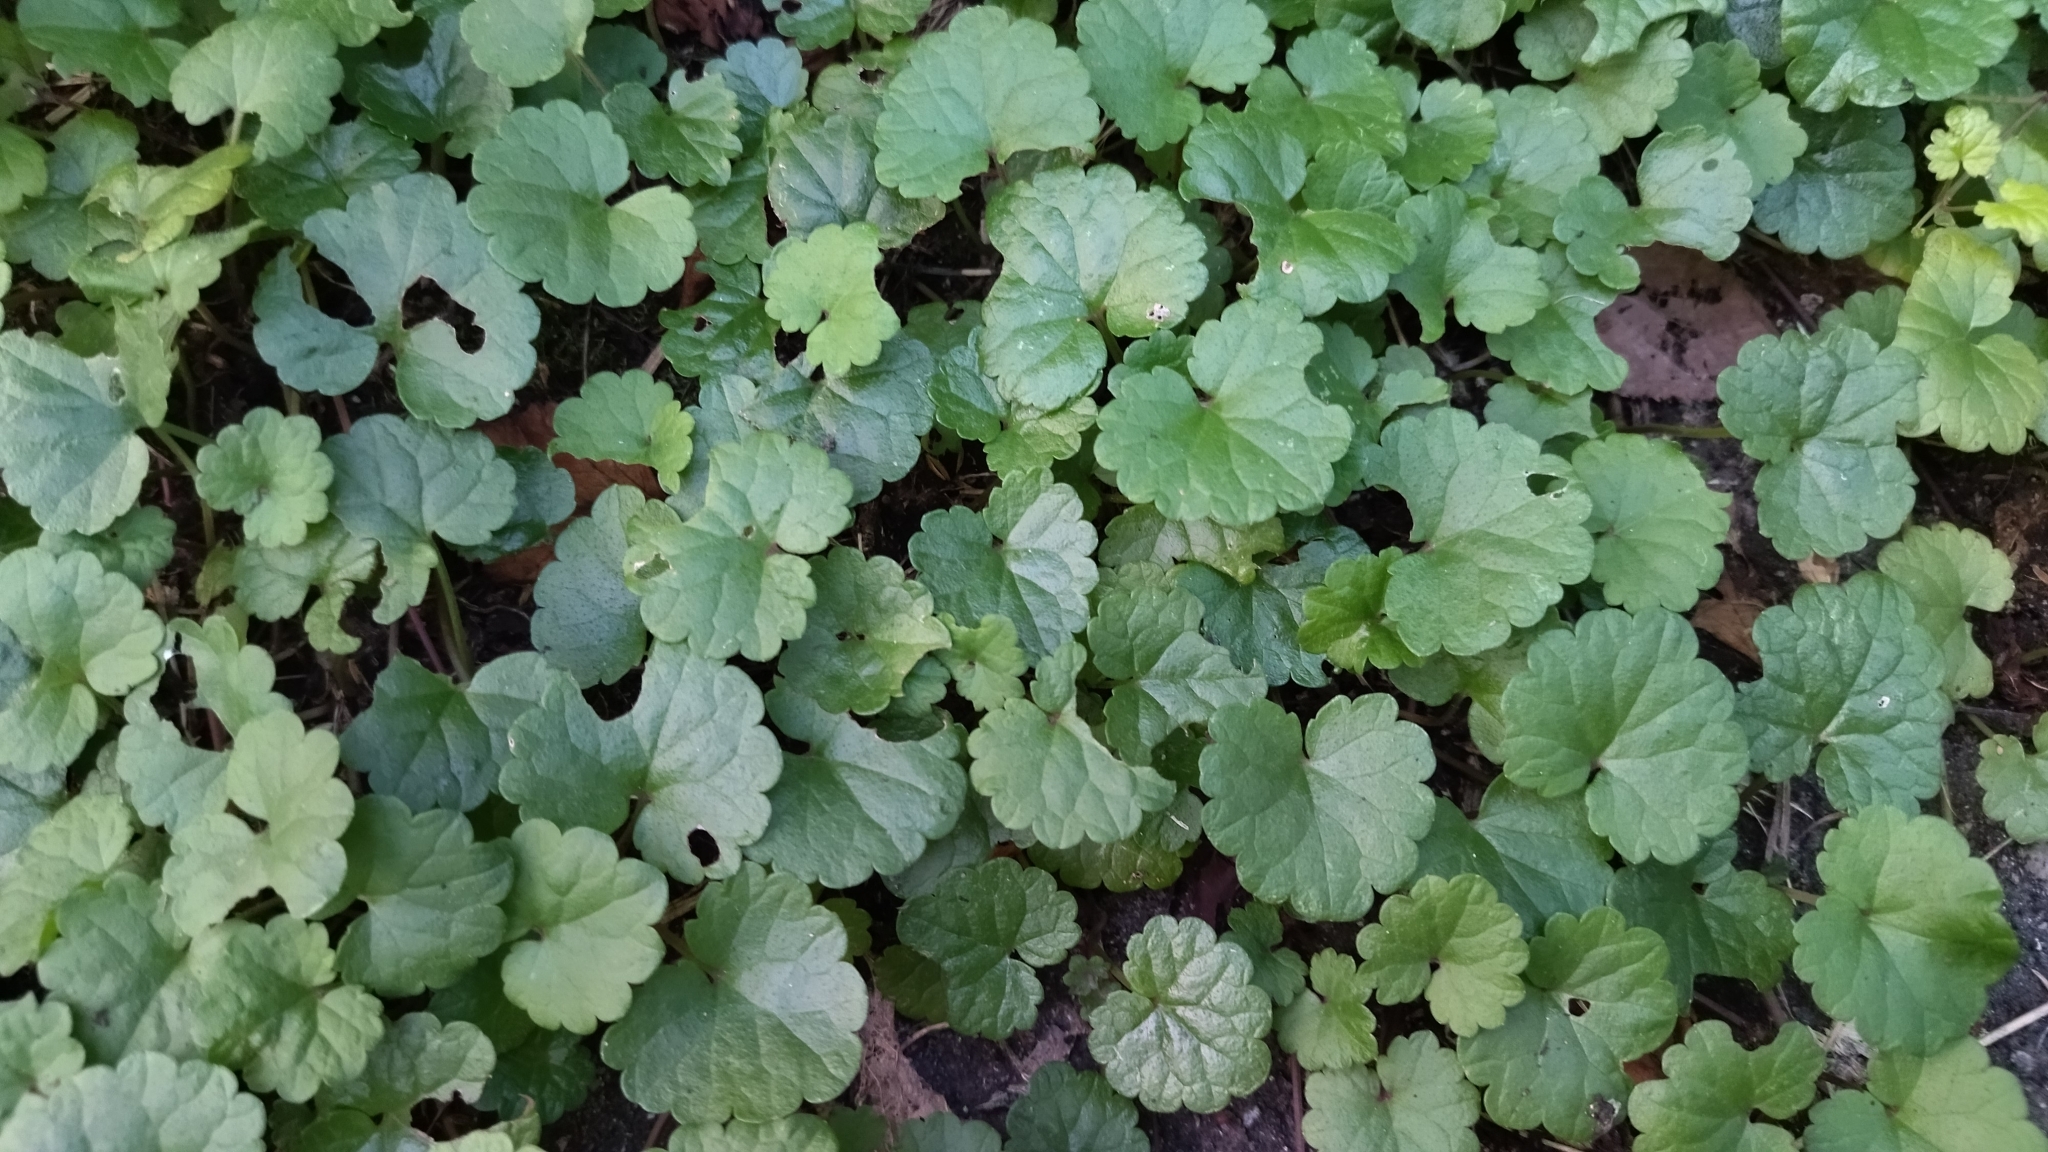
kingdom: Plantae
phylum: Tracheophyta
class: Magnoliopsida
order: Lamiales
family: Lamiaceae
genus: Glechoma
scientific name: Glechoma hederacea
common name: Ground ivy
